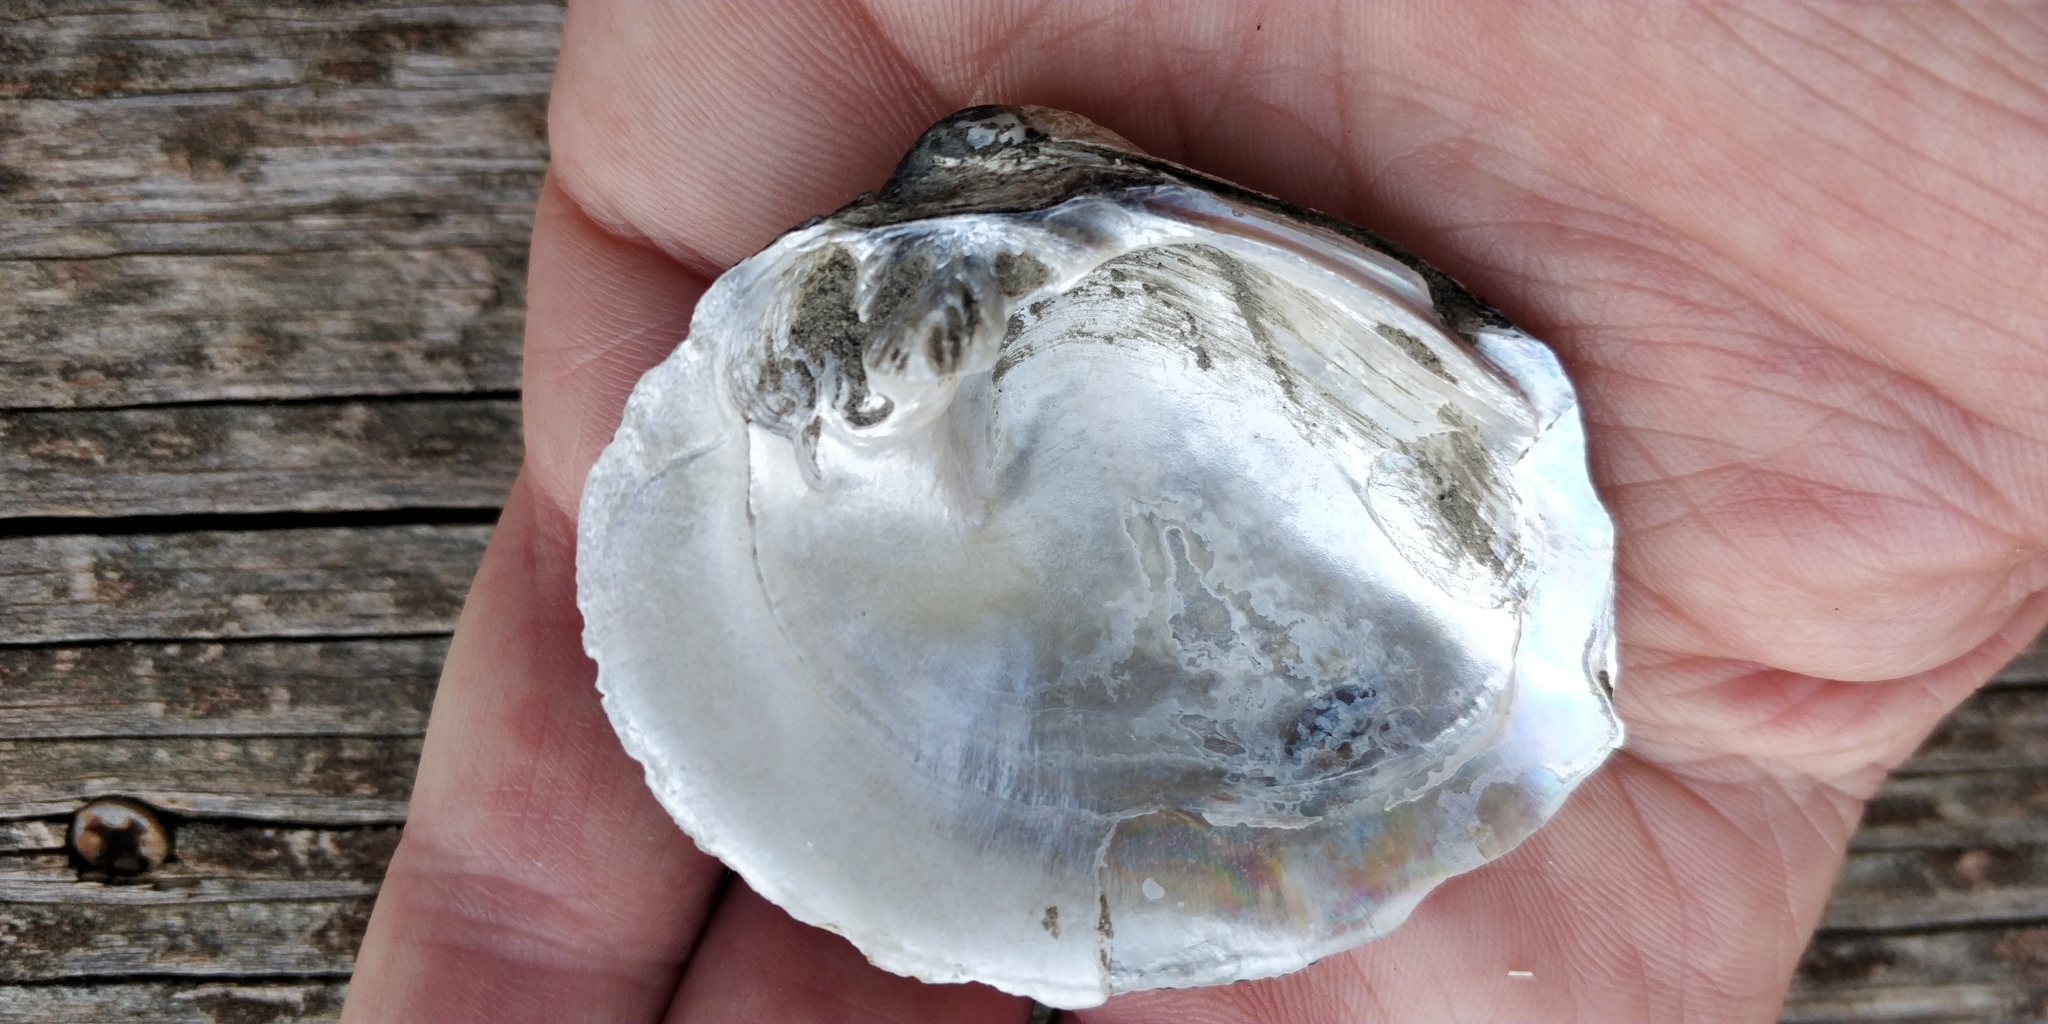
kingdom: Animalia
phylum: Mollusca
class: Bivalvia
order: Unionida
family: Unionidae
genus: Cyclonaias
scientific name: Cyclonaias pustulosa
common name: Pimpleback
